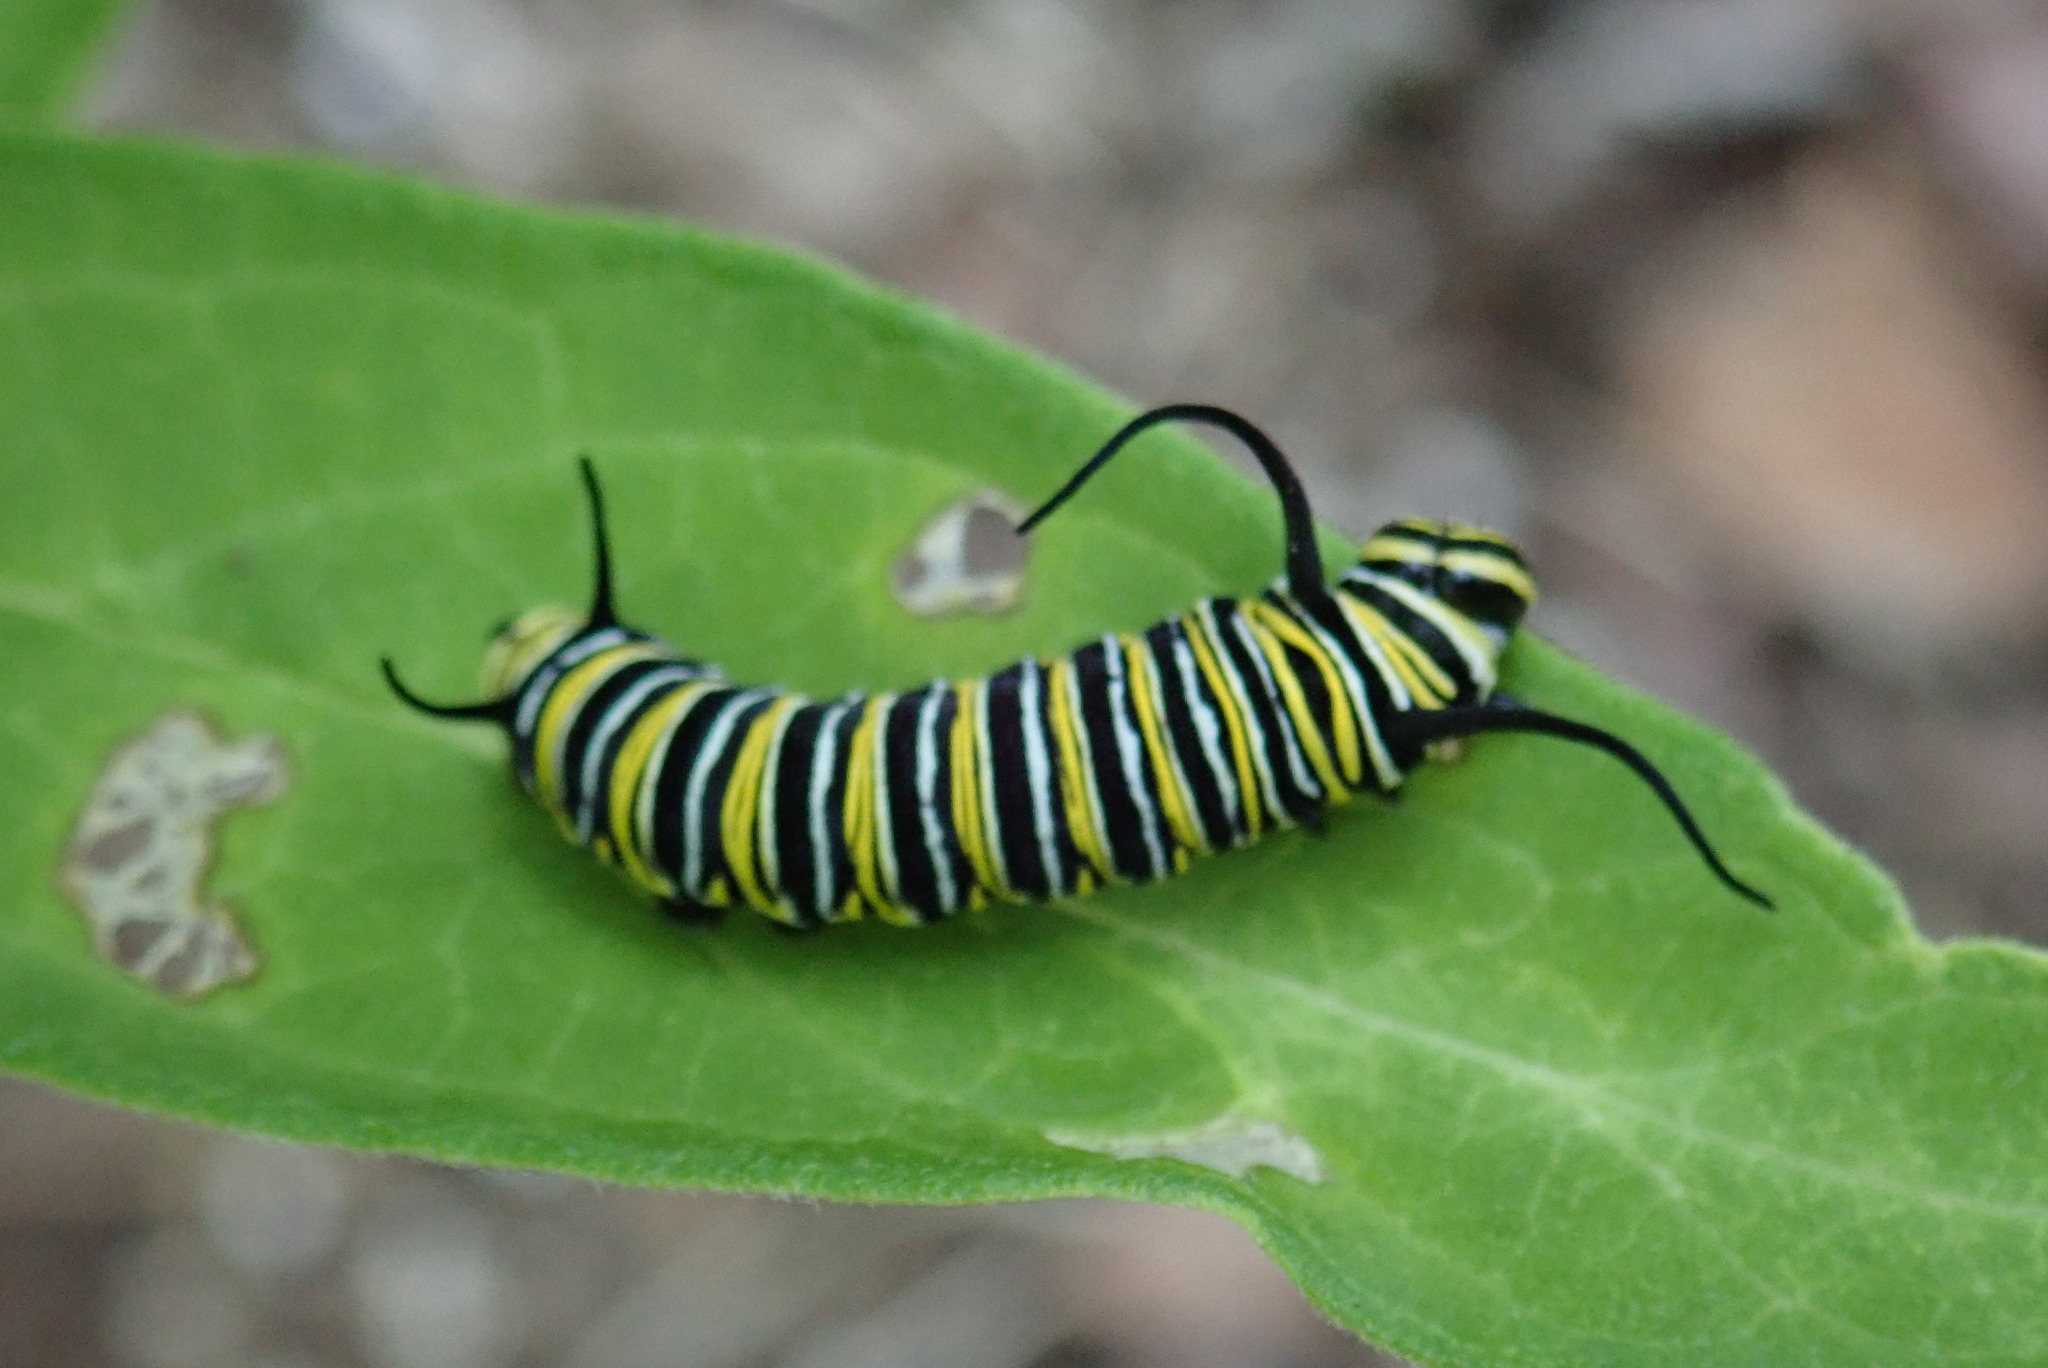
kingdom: Animalia
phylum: Arthropoda
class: Insecta
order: Lepidoptera
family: Nymphalidae
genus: Danaus
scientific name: Danaus plexippus
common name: Monarch
